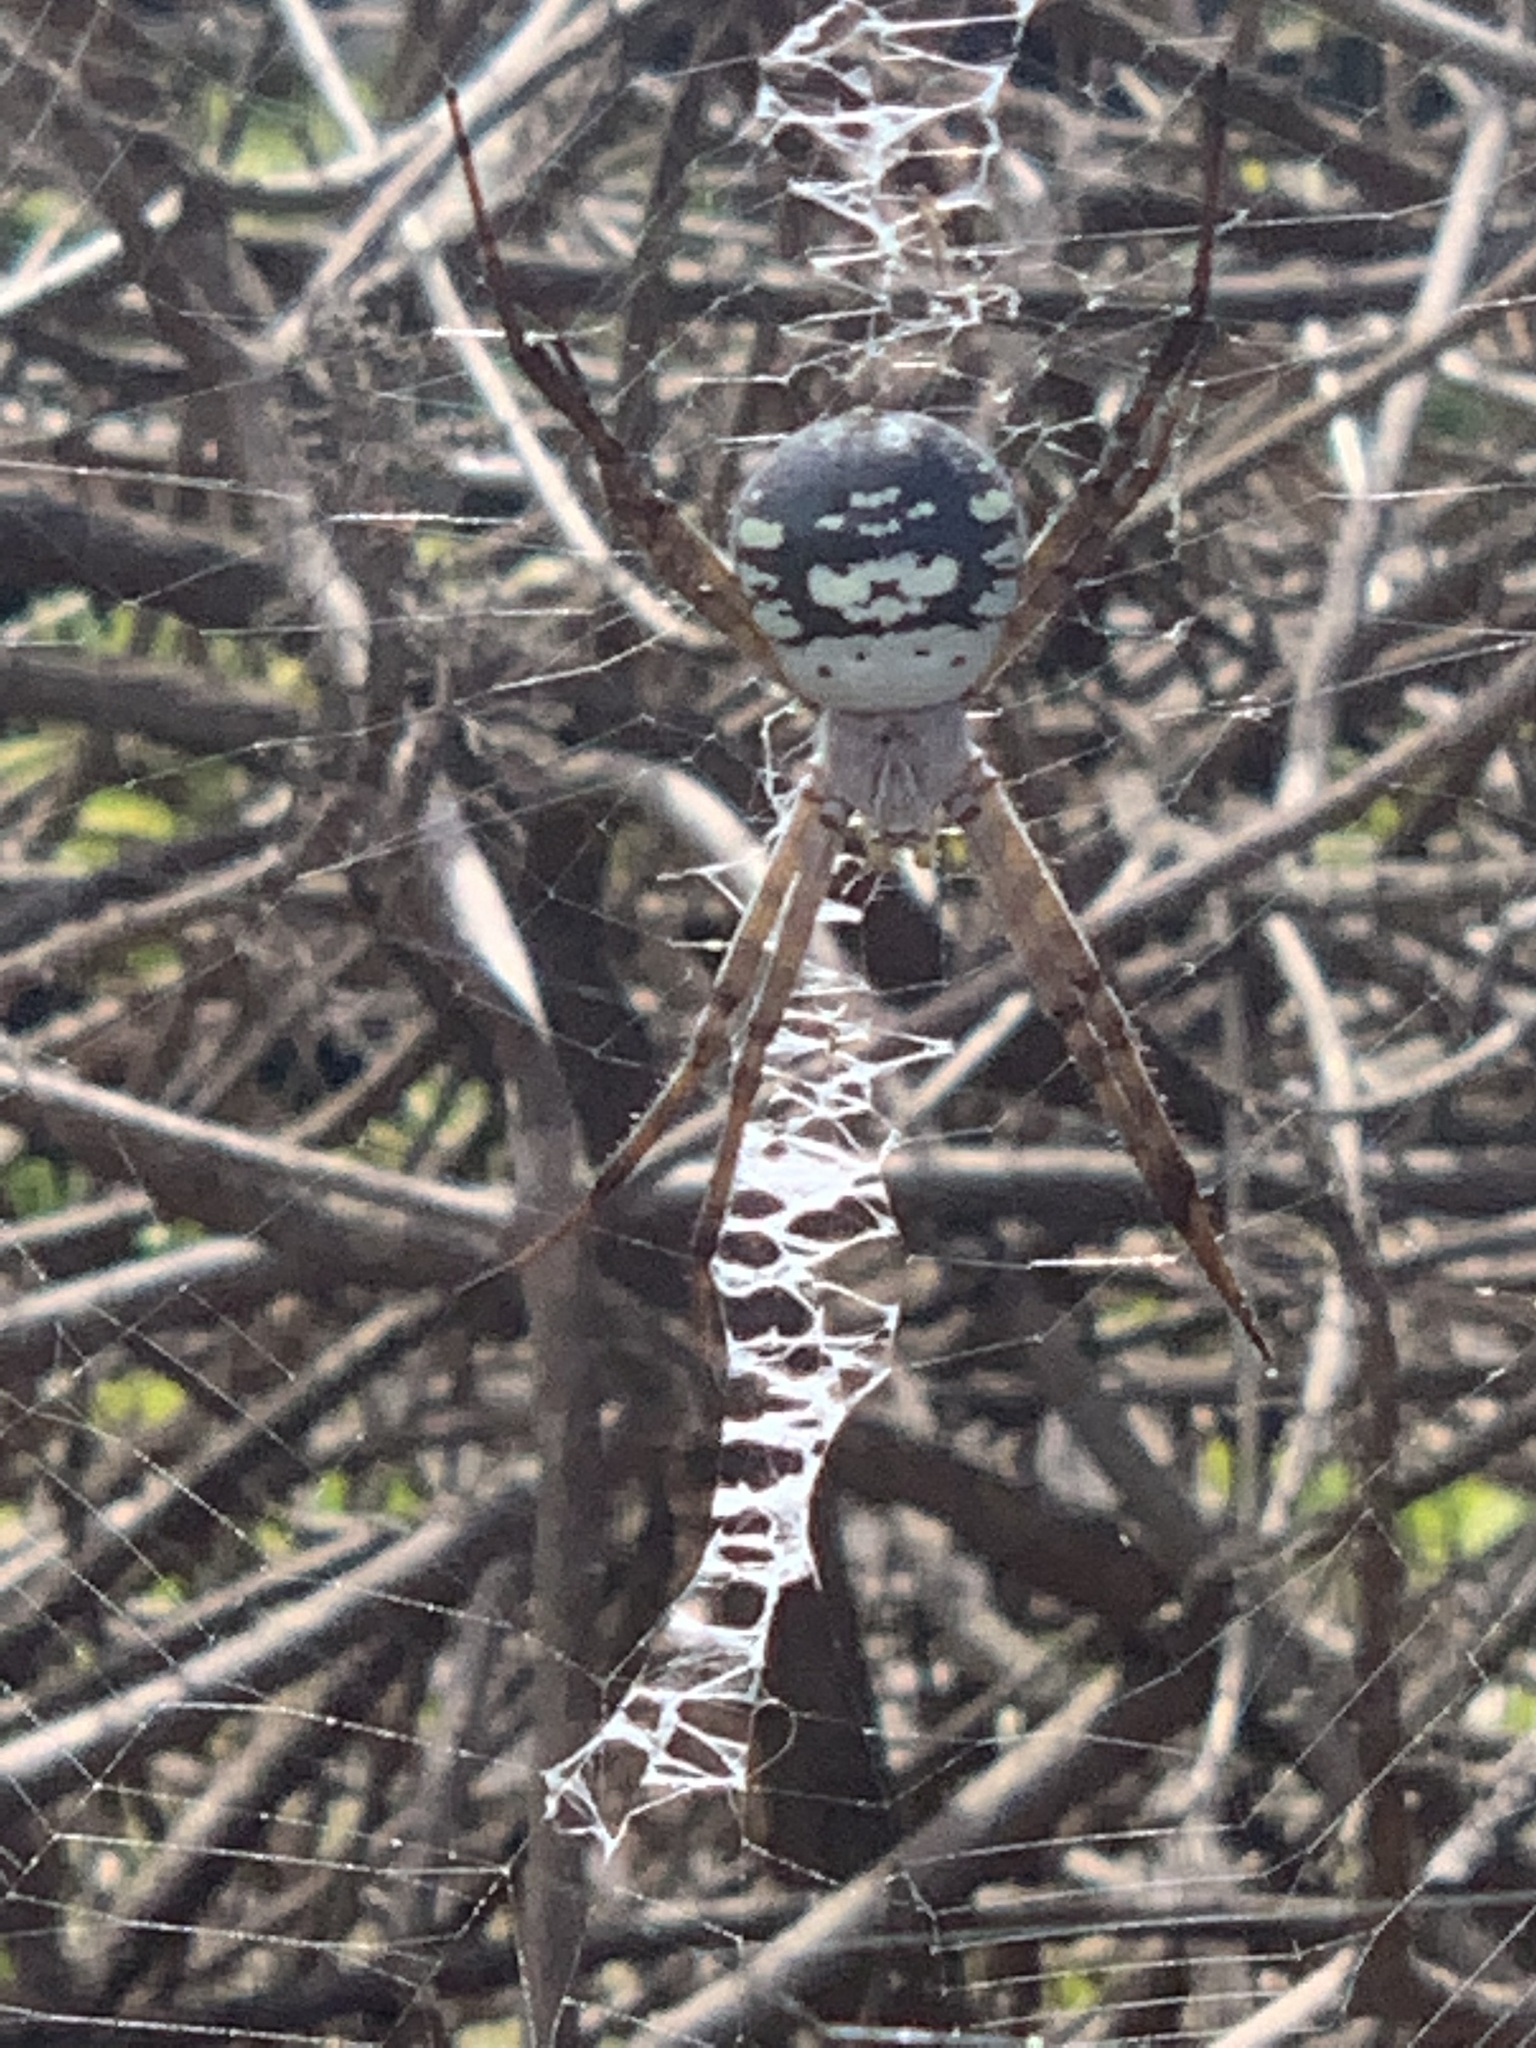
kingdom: Animalia
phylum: Arthropoda
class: Arachnida
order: Araneae
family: Araneidae
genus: Argiope
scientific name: Argiope trifasciata
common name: Banded garden spider
